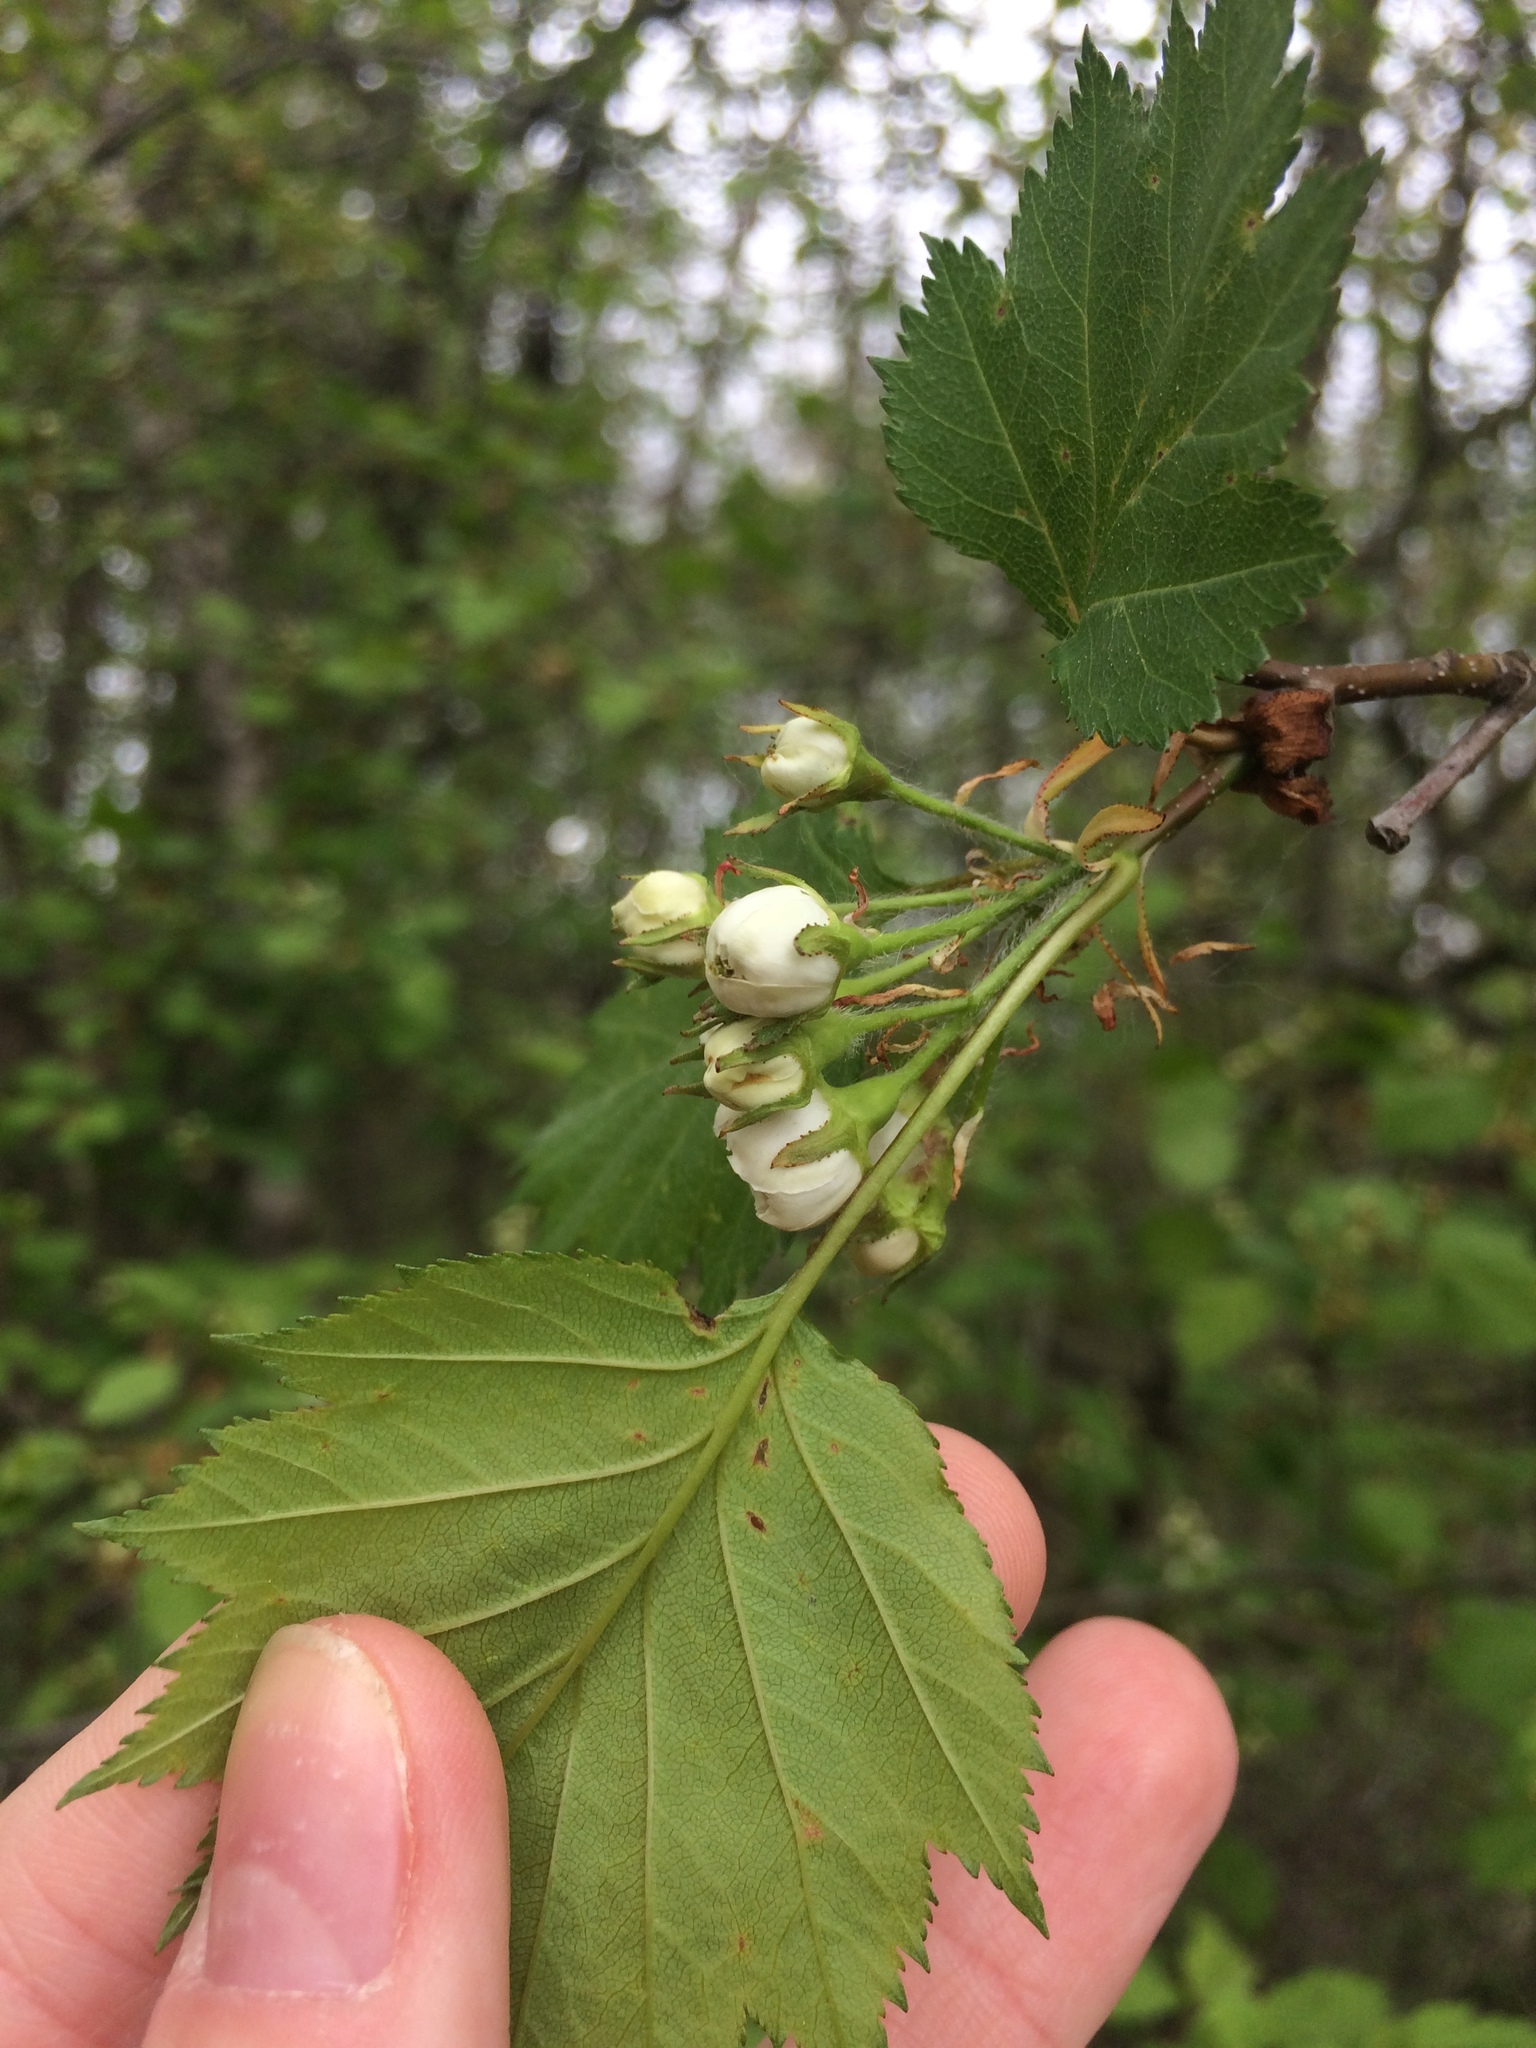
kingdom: Plantae
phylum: Tracheophyta
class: Magnoliopsida
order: Rosales
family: Rosaceae
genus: Crataegus
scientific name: Crataegus flabellata
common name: Bosc's hawthorn
